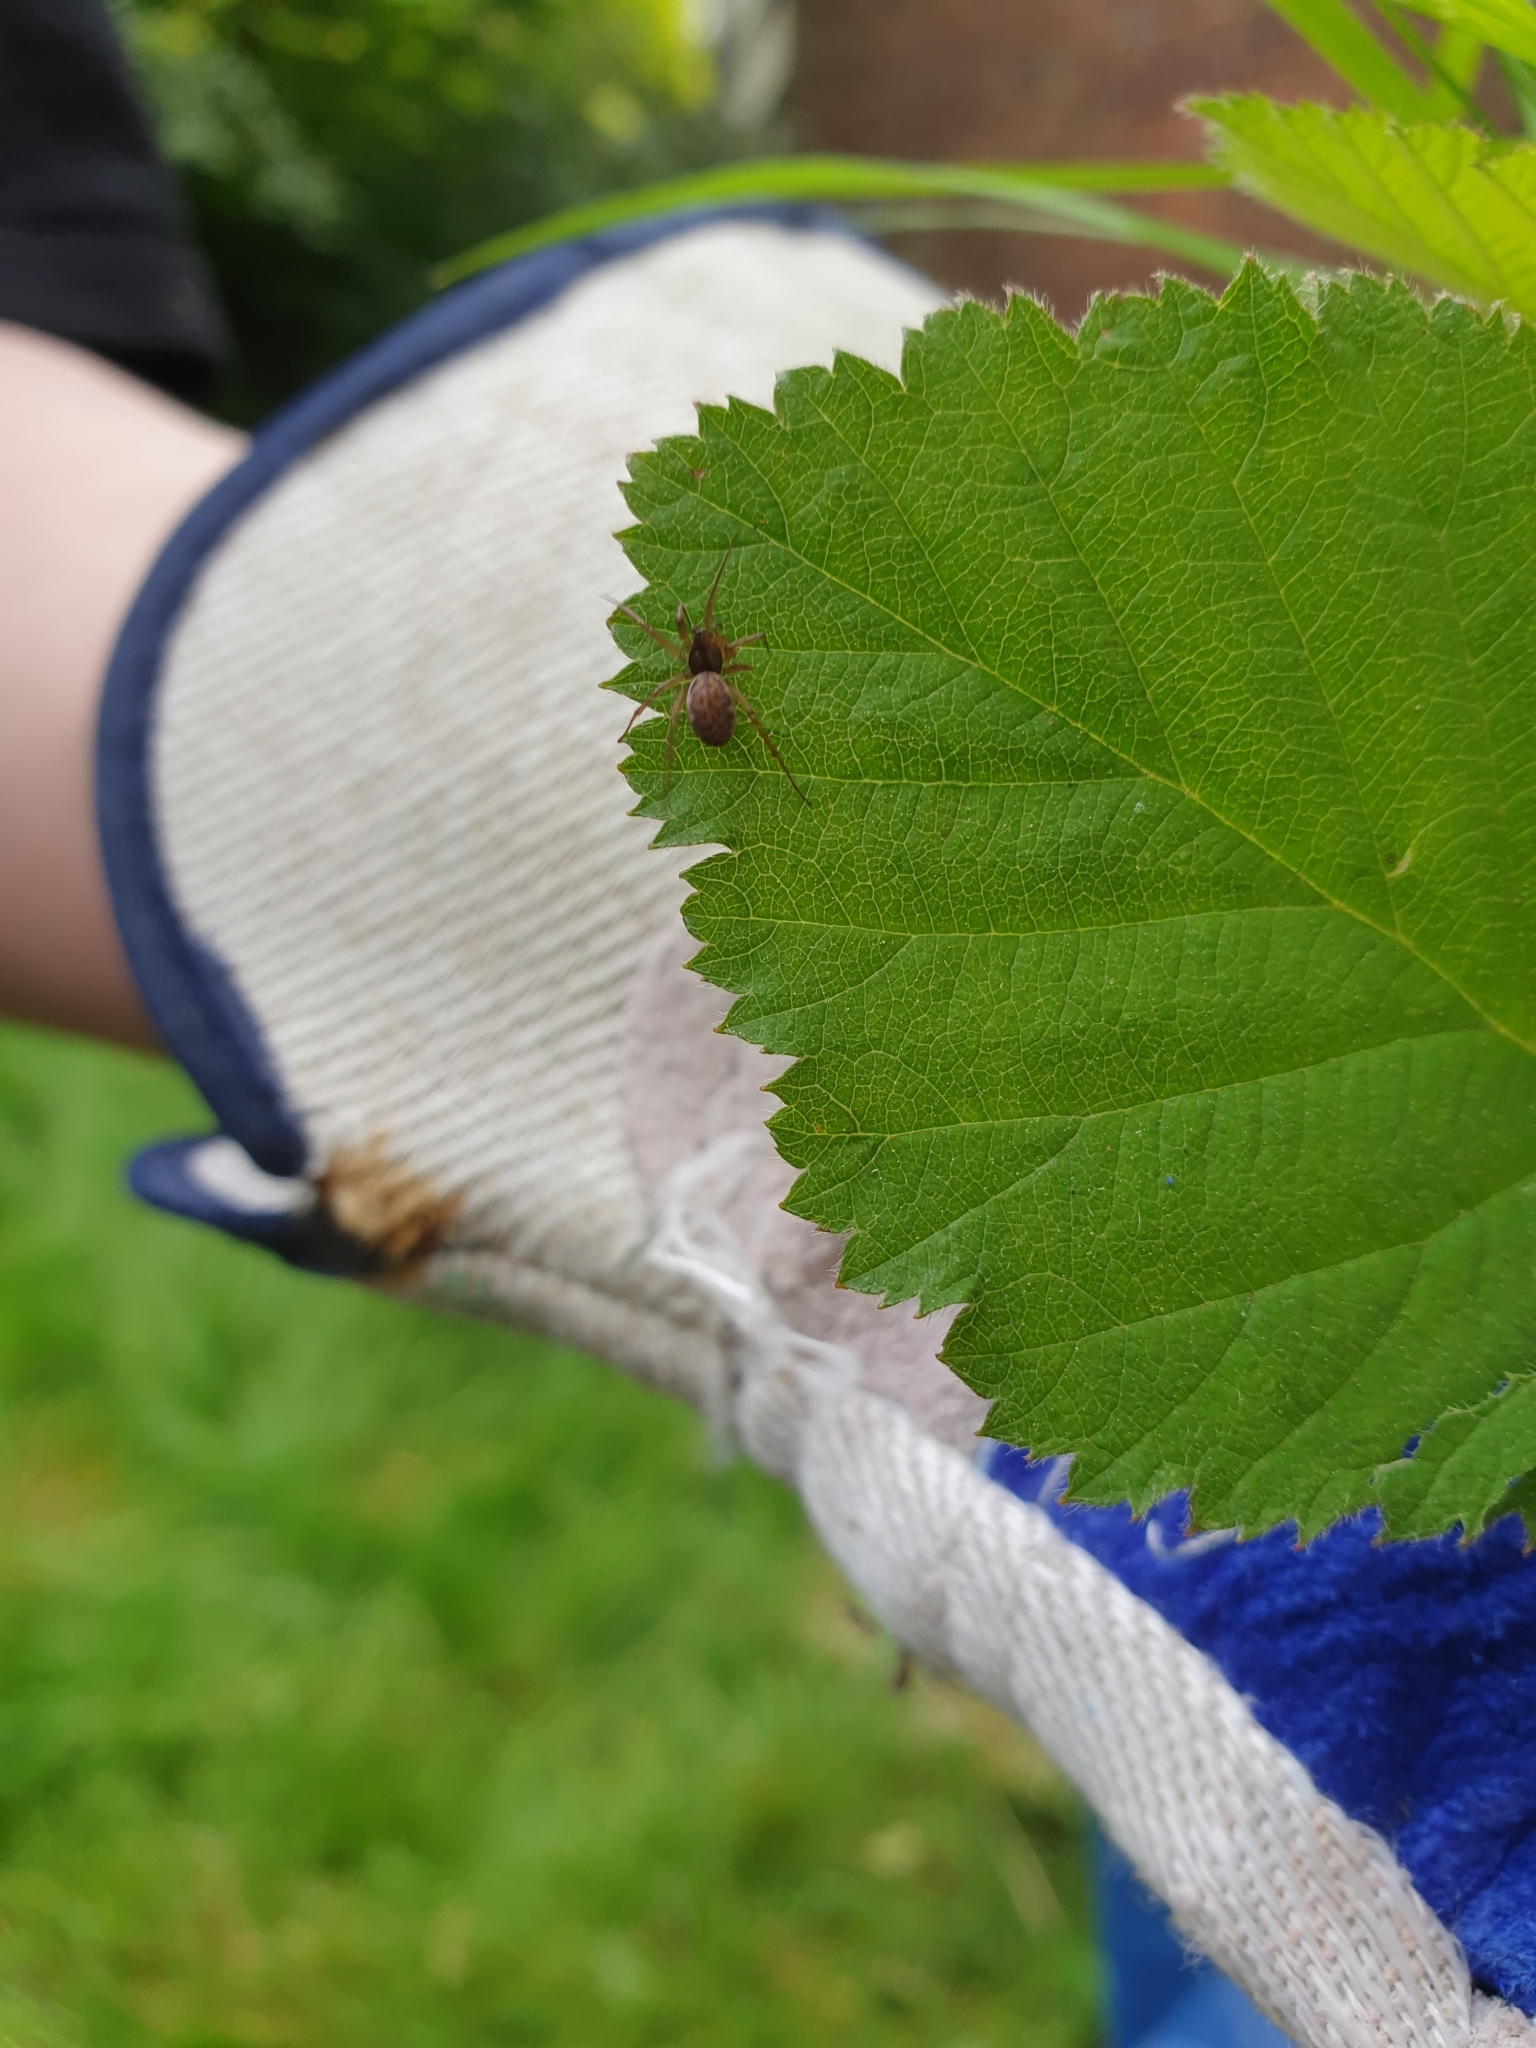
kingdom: Animalia
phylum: Arthropoda
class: Arachnida
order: Araneae
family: Linyphiidae
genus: Neriene
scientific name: Neriene clathrata
